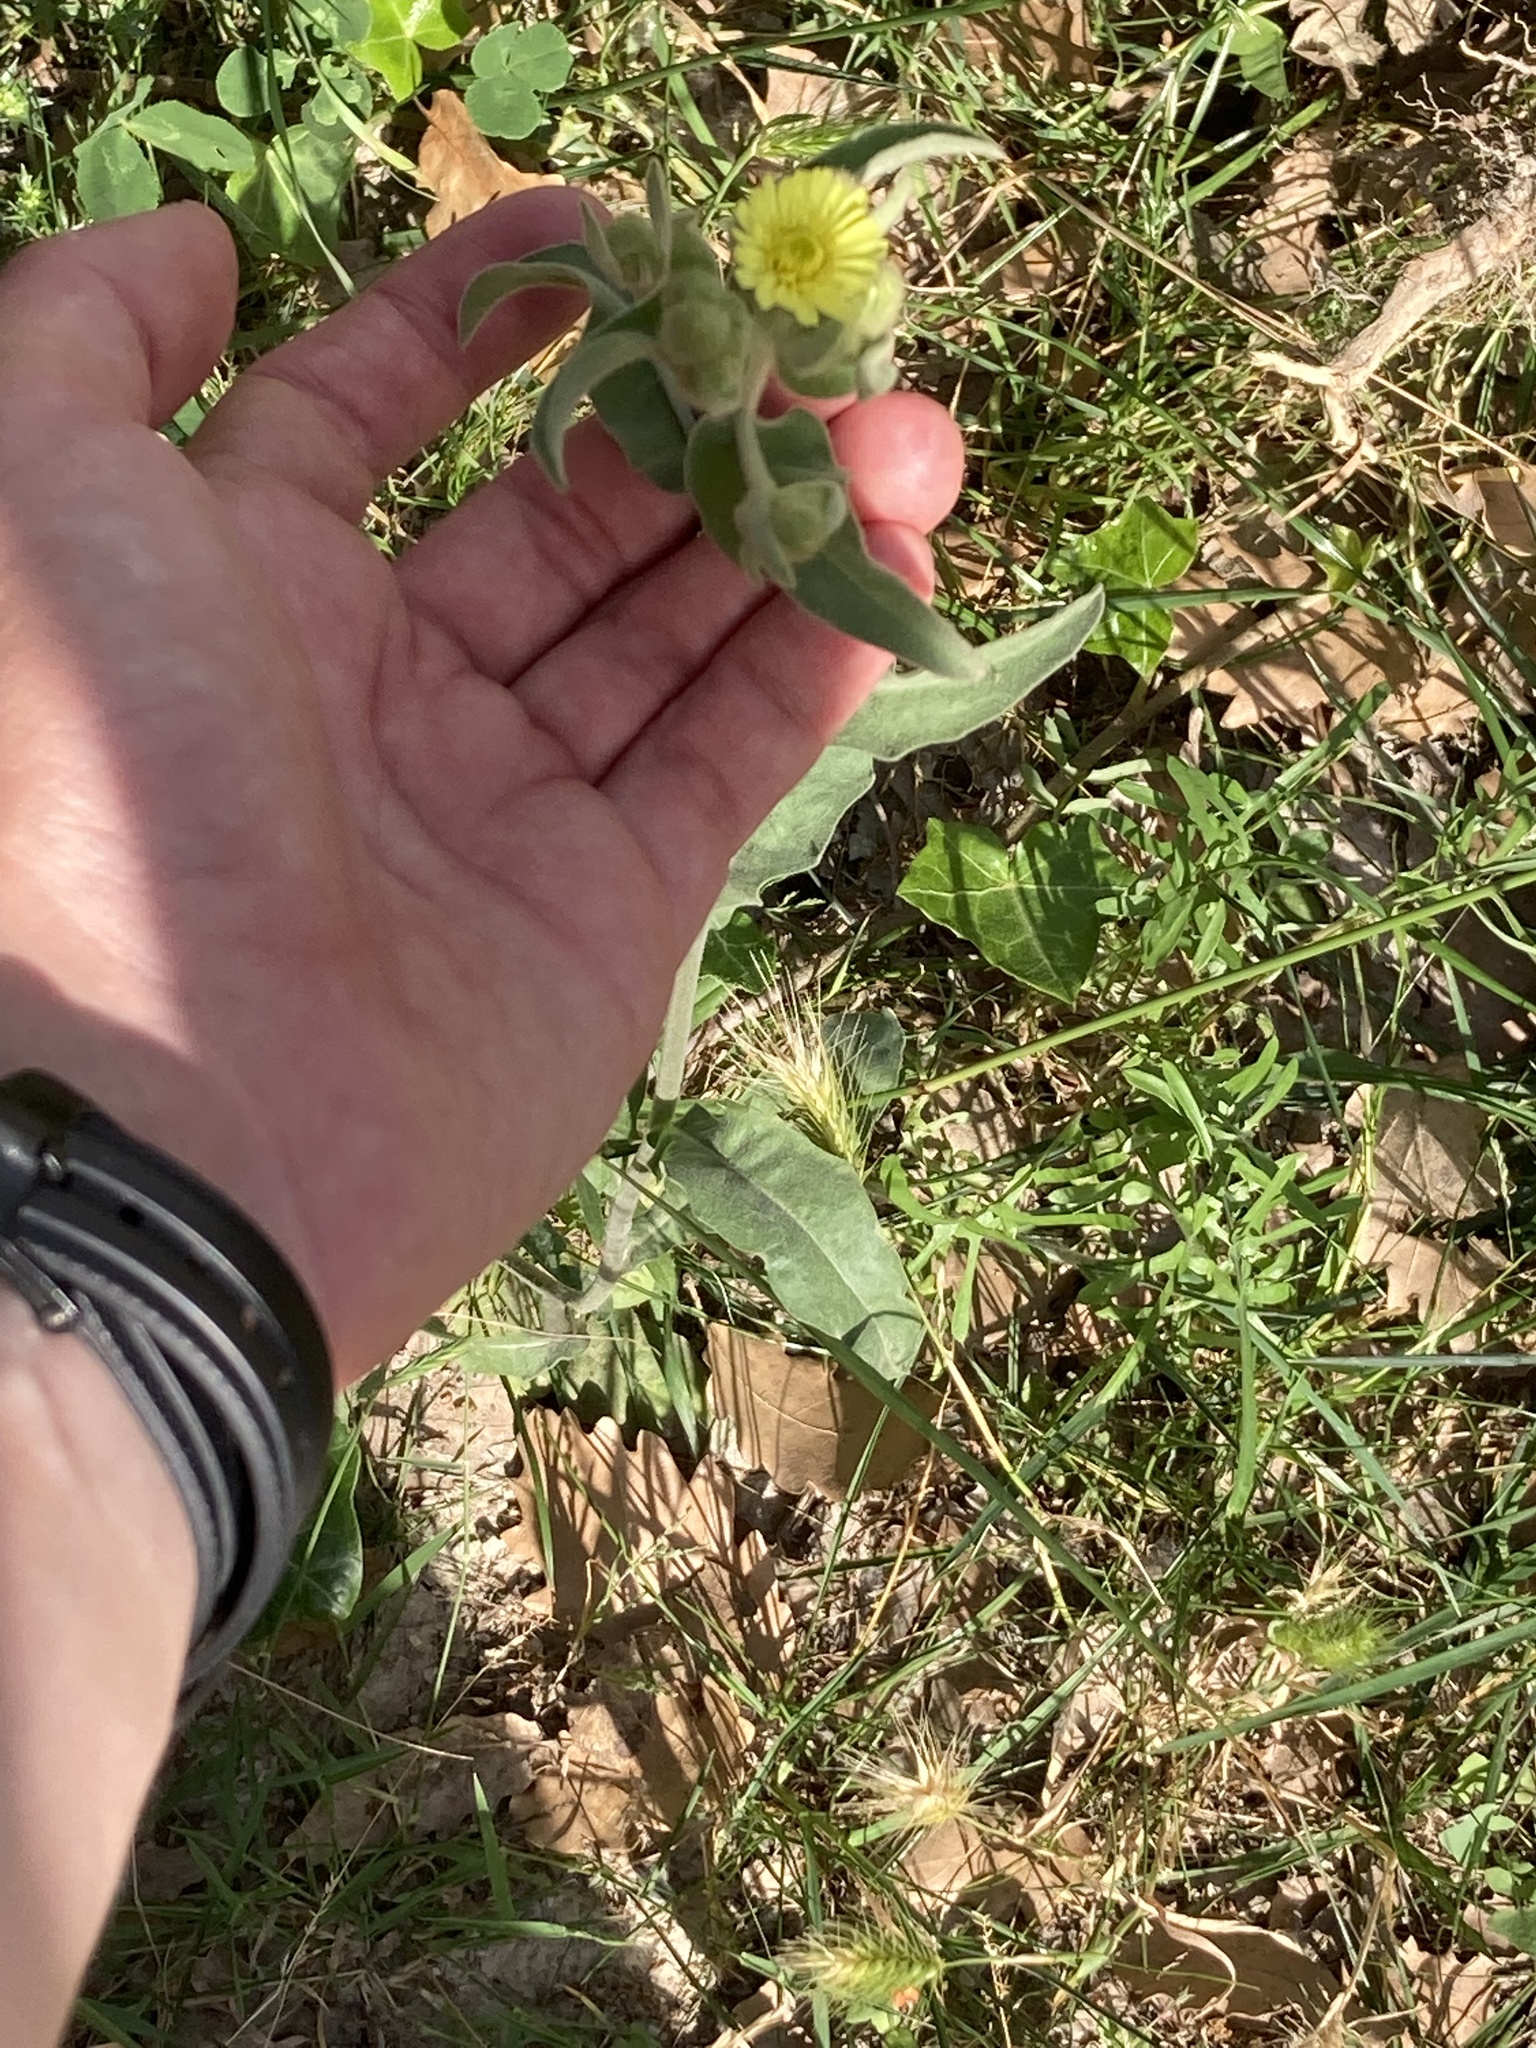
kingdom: Plantae
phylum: Tracheophyta
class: Magnoliopsida
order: Asterales
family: Asteraceae
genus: Andryala
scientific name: Andryala integrifolia
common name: Common andryala
